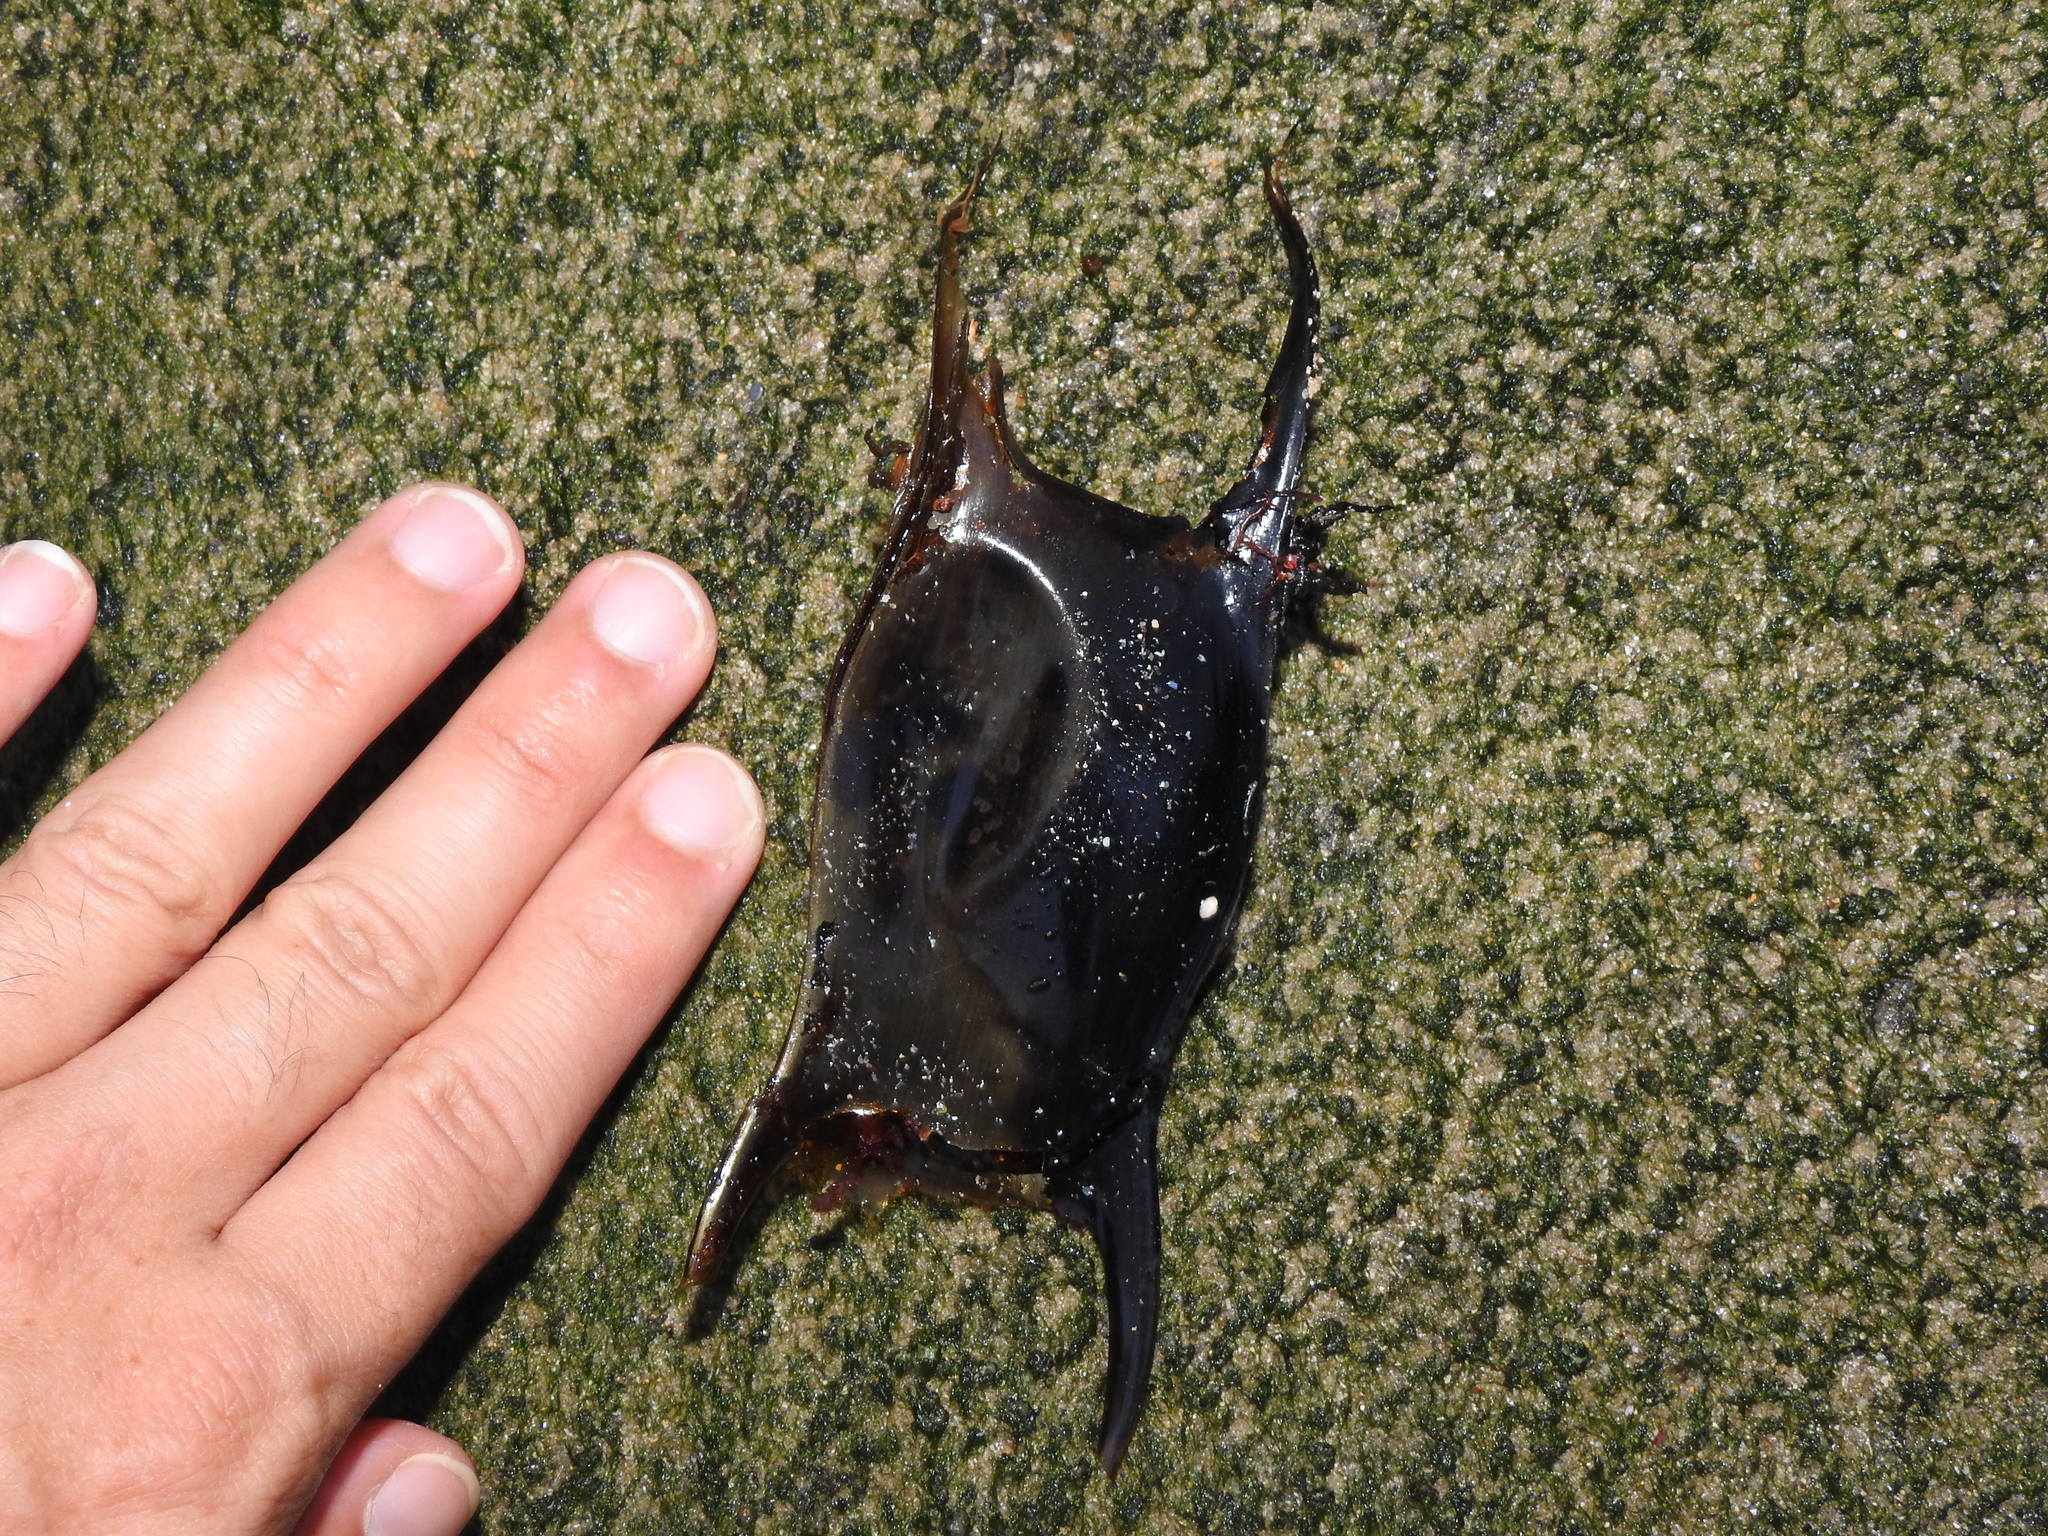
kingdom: Animalia
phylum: Chordata
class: Elasmobranchii
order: Rajiformes
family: Rajidae
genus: Raja
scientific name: Raja undulata
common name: Undulate ray
